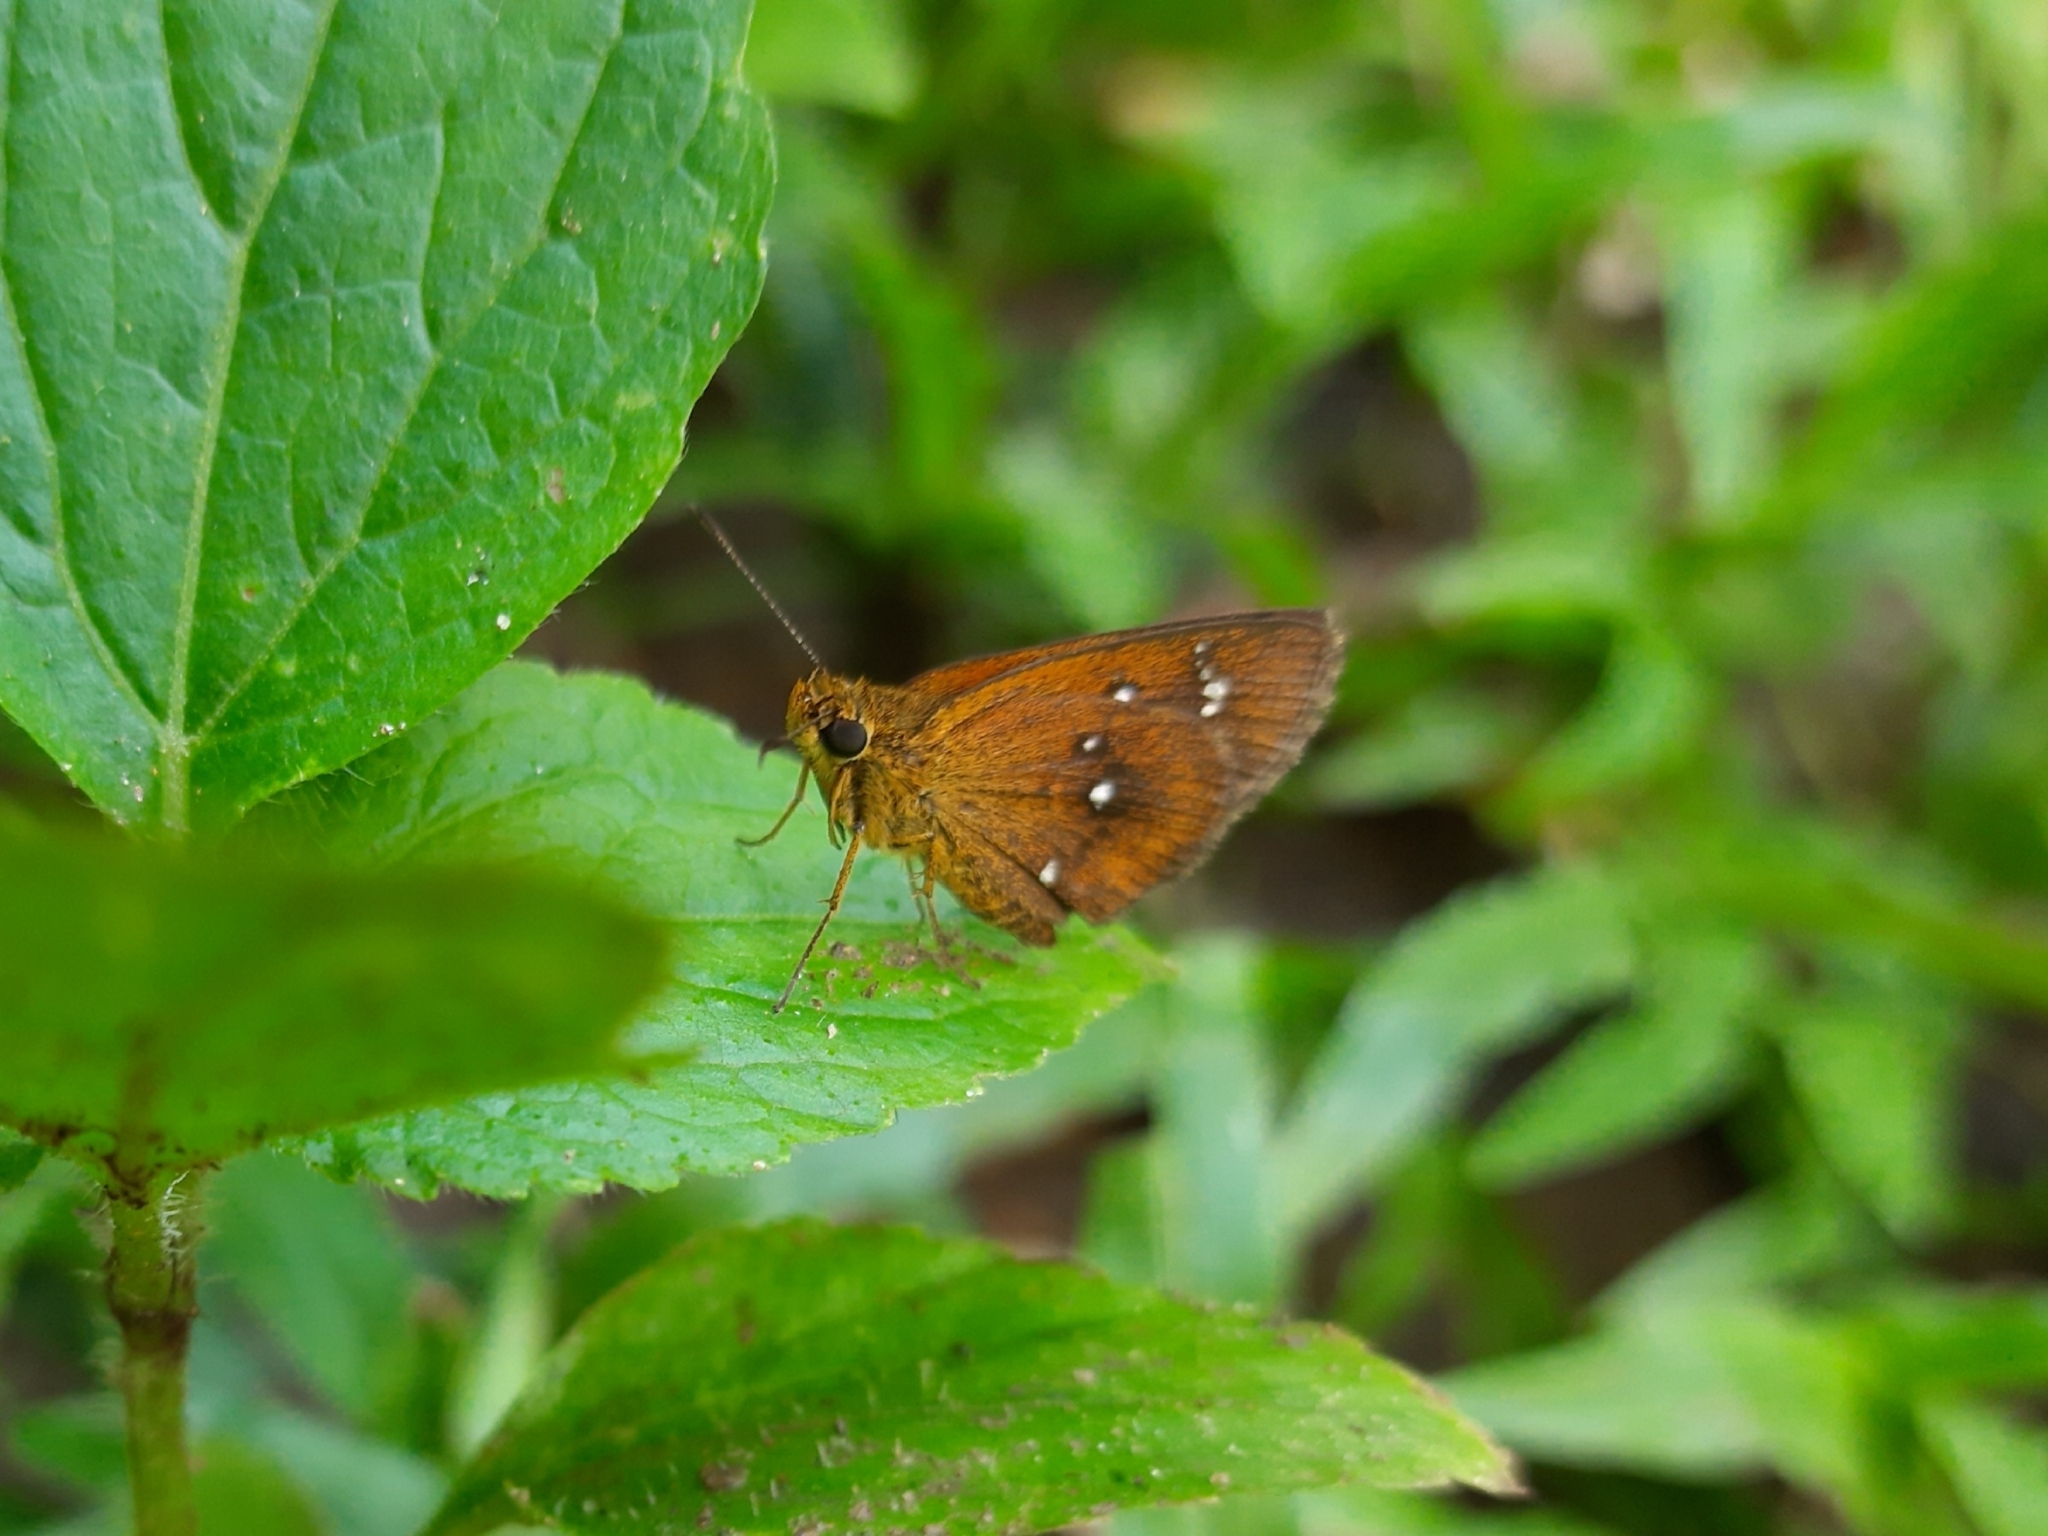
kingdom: Animalia
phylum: Arthropoda
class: Insecta
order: Lepidoptera
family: Hesperiidae
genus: Iambrix
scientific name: Iambrix salsala
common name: Chestnut bob
